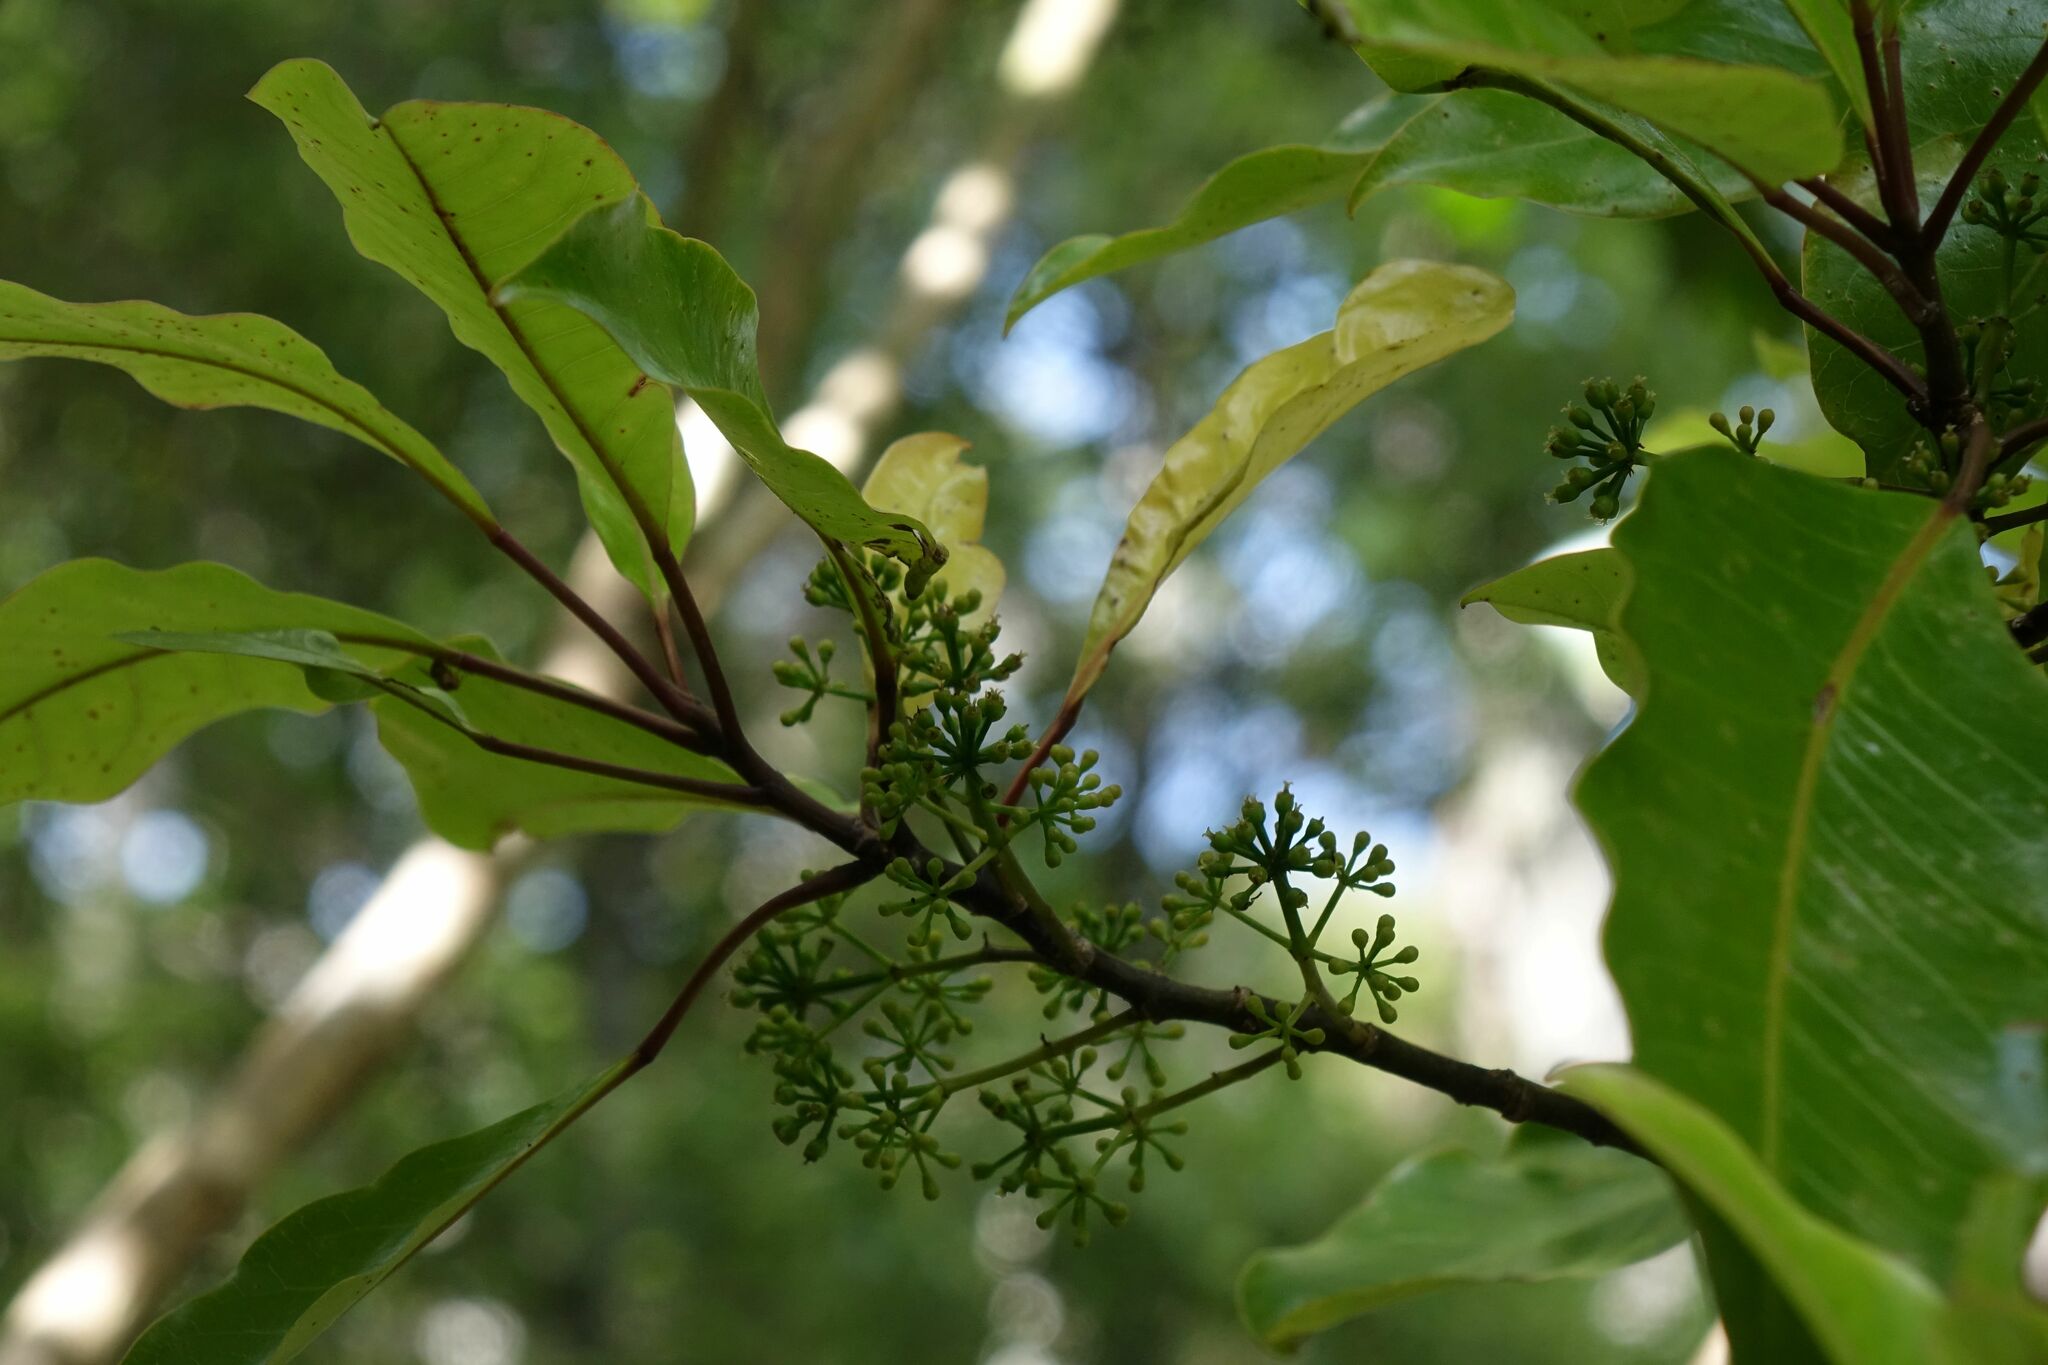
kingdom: Plantae
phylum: Tracheophyta
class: Magnoliopsida
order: Apiales
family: Araliaceae
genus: Raukaua
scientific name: Raukaua edgerleyi
